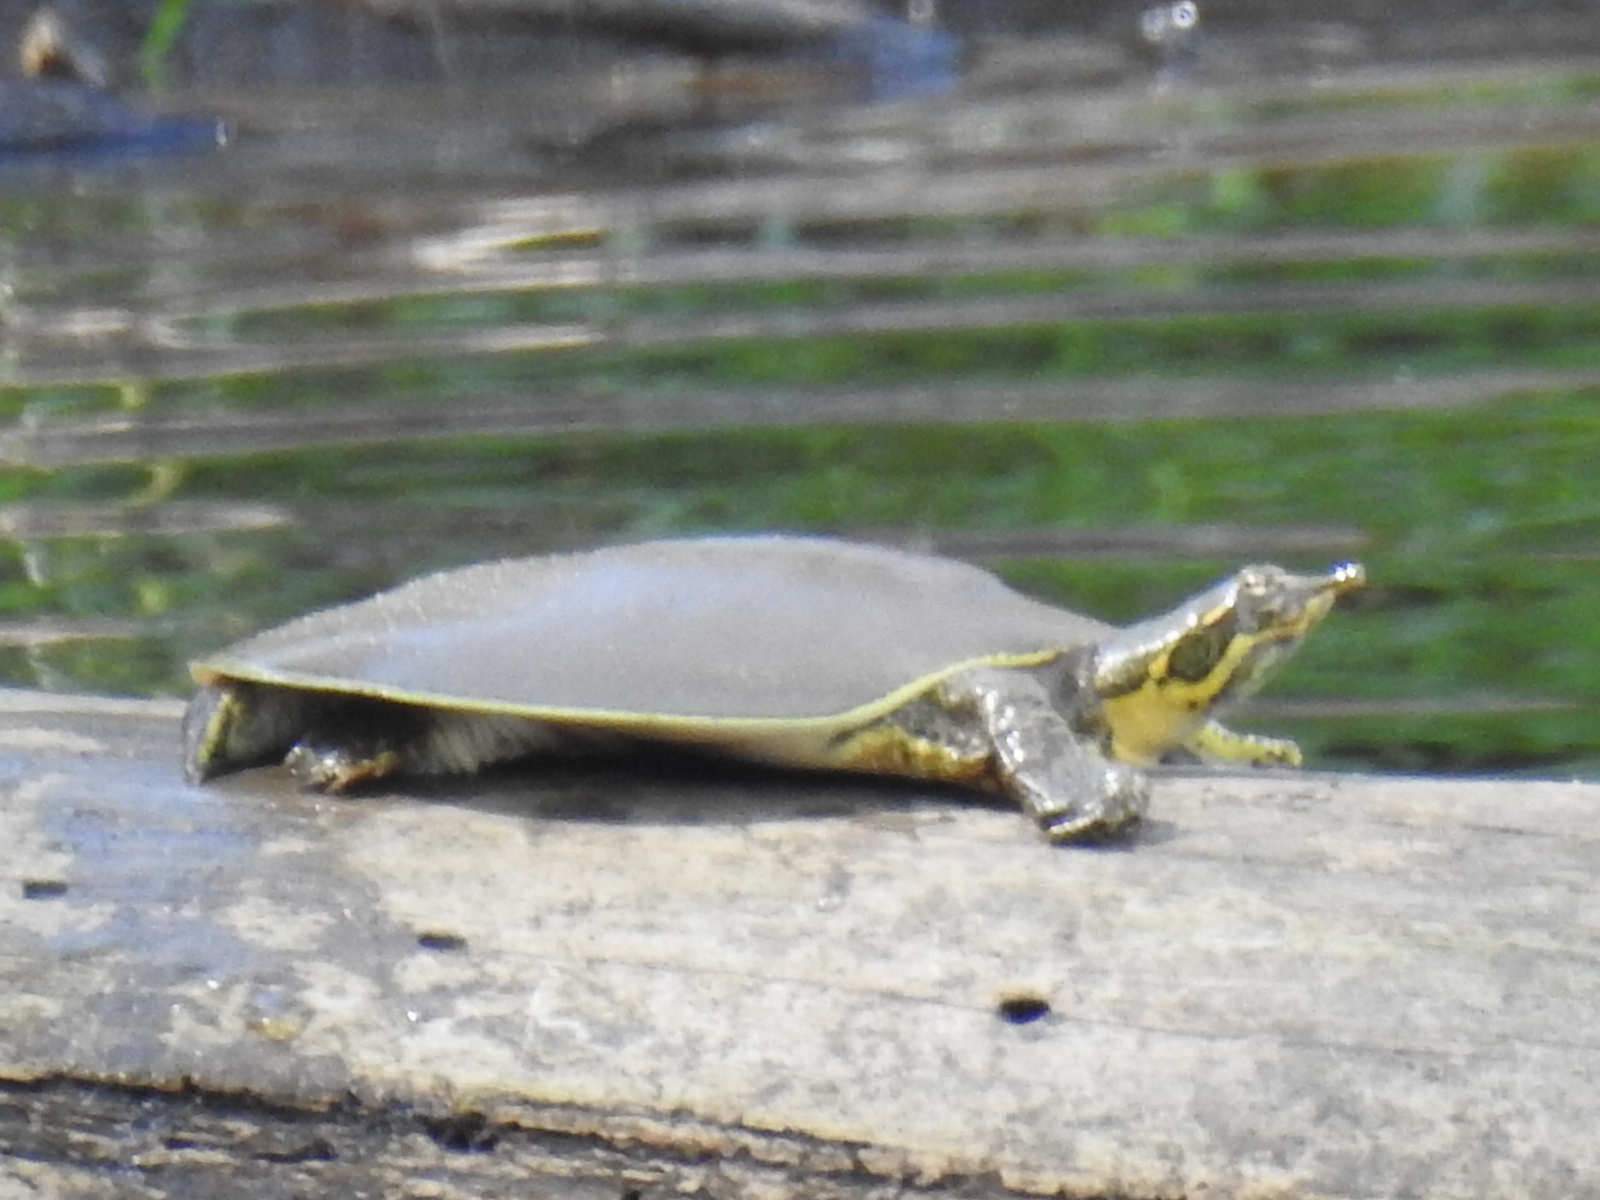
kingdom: Animalia
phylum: Chordata
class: Testudines
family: Trionychidae
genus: Apalone
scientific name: Apalone spinifera
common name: Spiny softshell turtle
